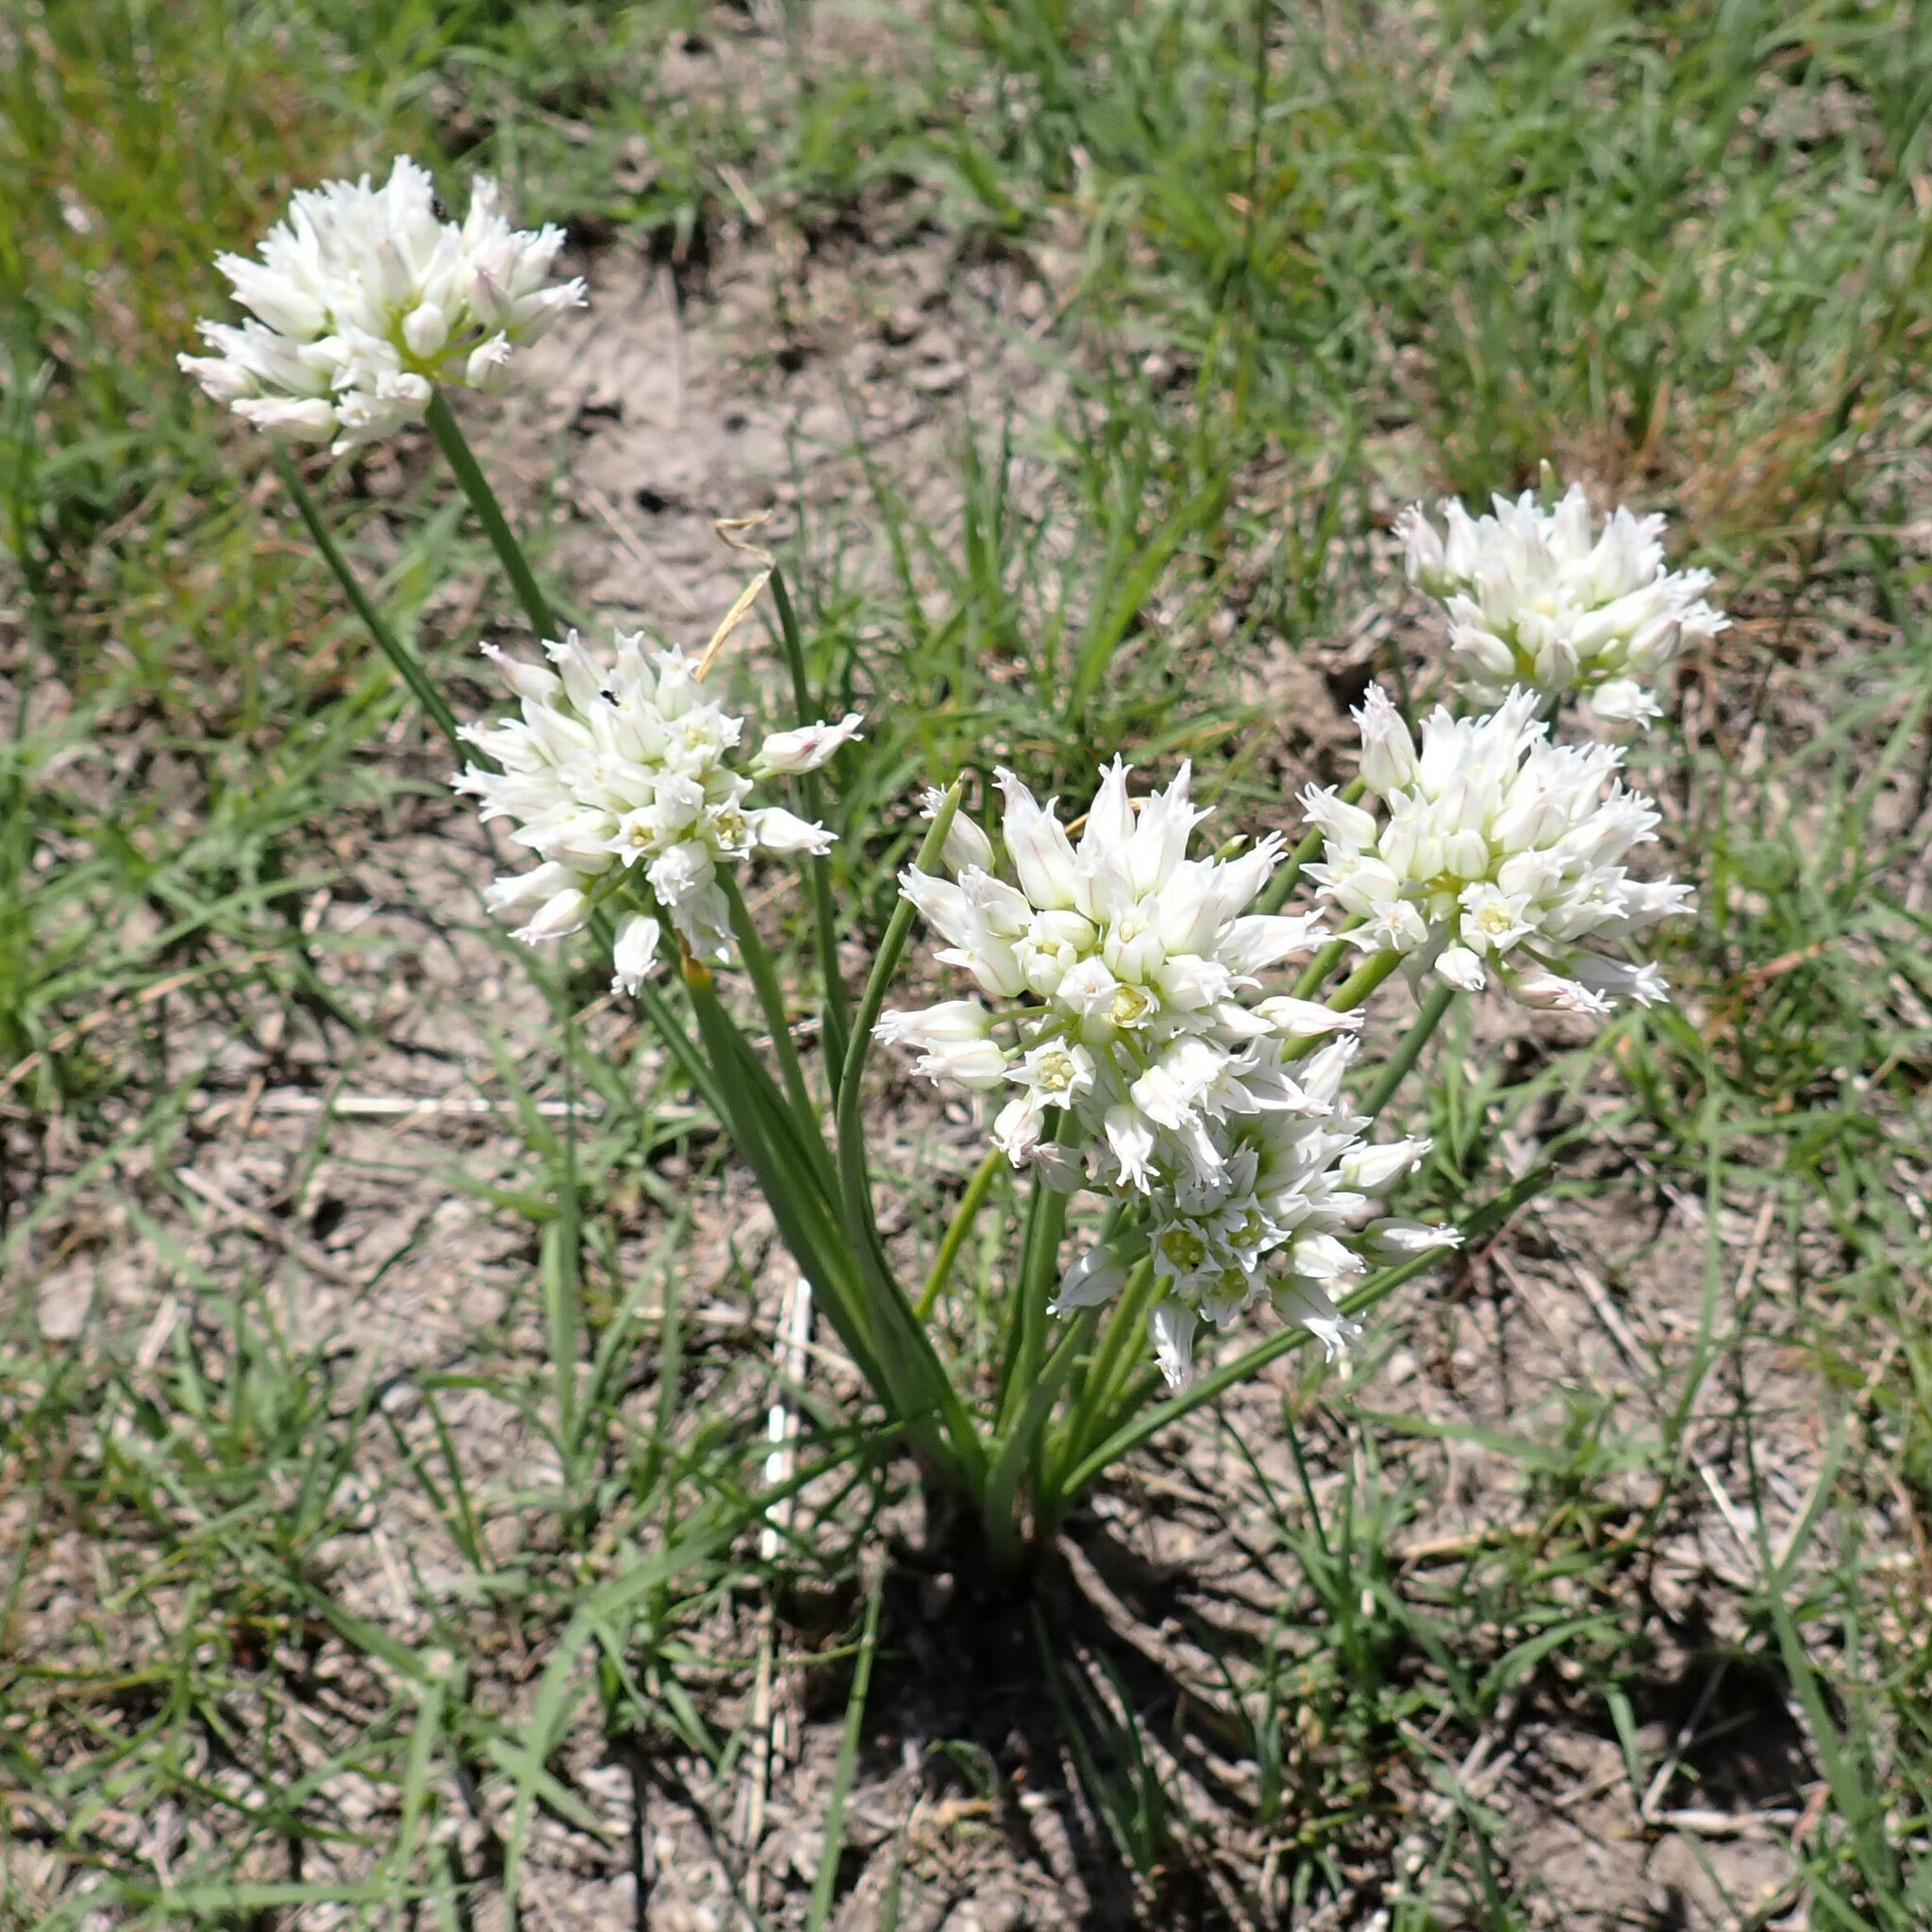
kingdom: Plantae
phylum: Tracheophyta
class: Liliopsida
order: Asparagales
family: Amaryllidaceae
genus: Allium
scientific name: Allium textile
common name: Prairie onion
